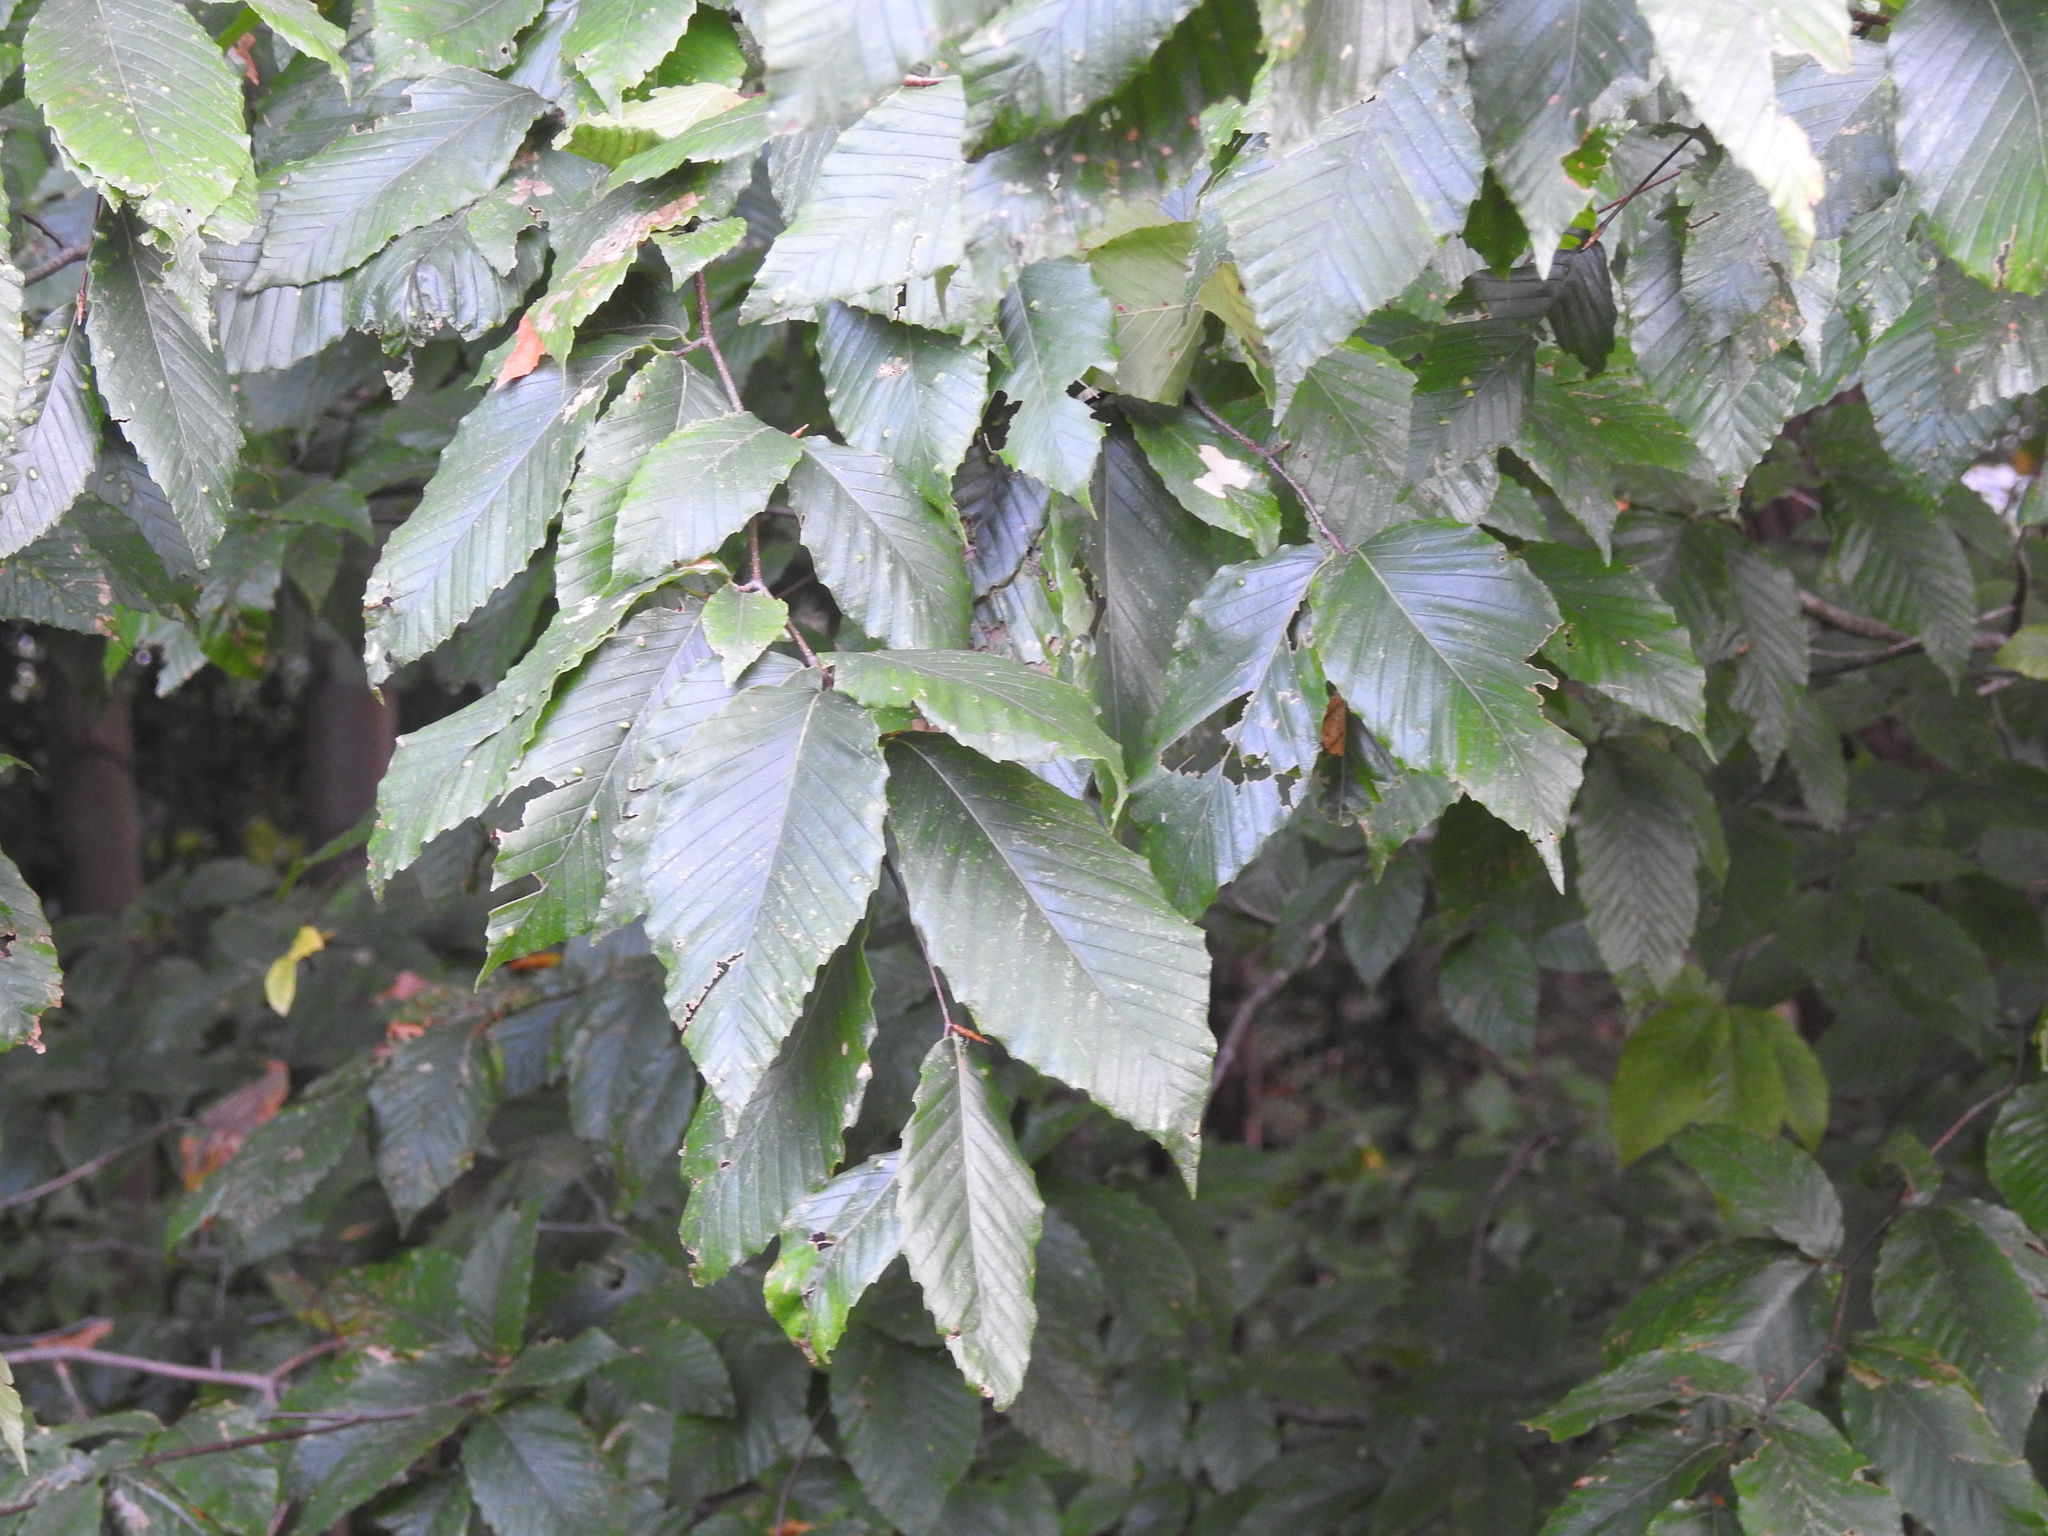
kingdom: Plantae
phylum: Tracheophyta
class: Magnoliopsida
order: Fagales
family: Fagaceae
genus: Fagus
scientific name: Fagus grandifolia
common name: American beech
